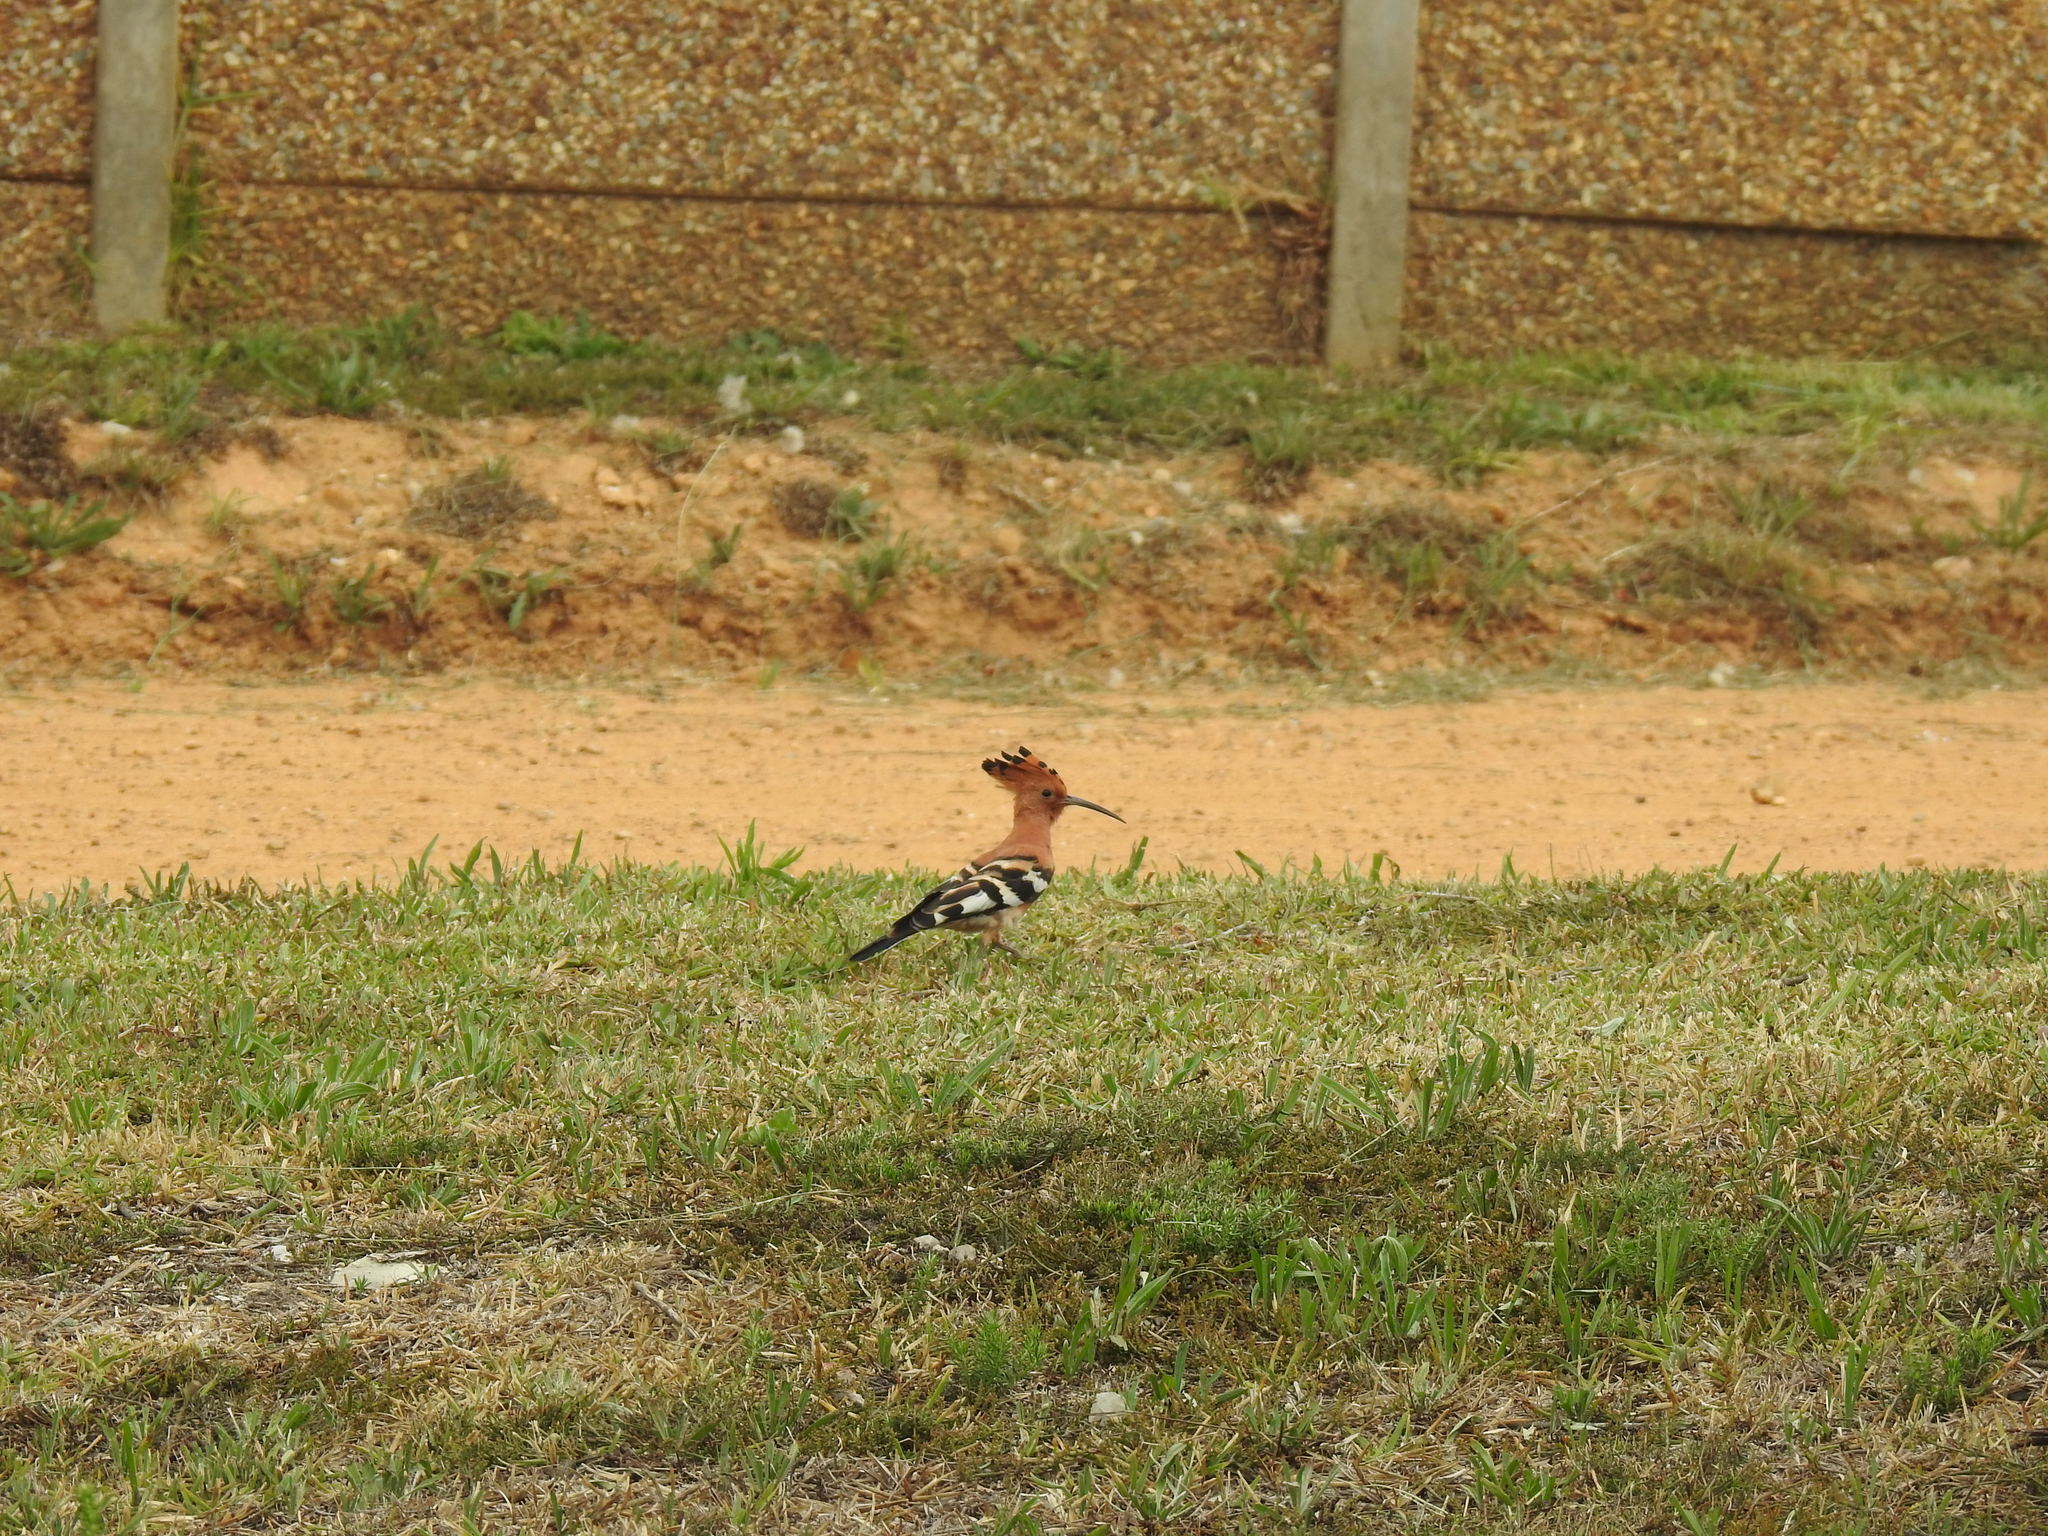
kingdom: Animalia
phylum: Chordata
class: Aves
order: Bucerotiformes
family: Upupidae
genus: Upupa
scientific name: Upupa africana
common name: African hoopoe
